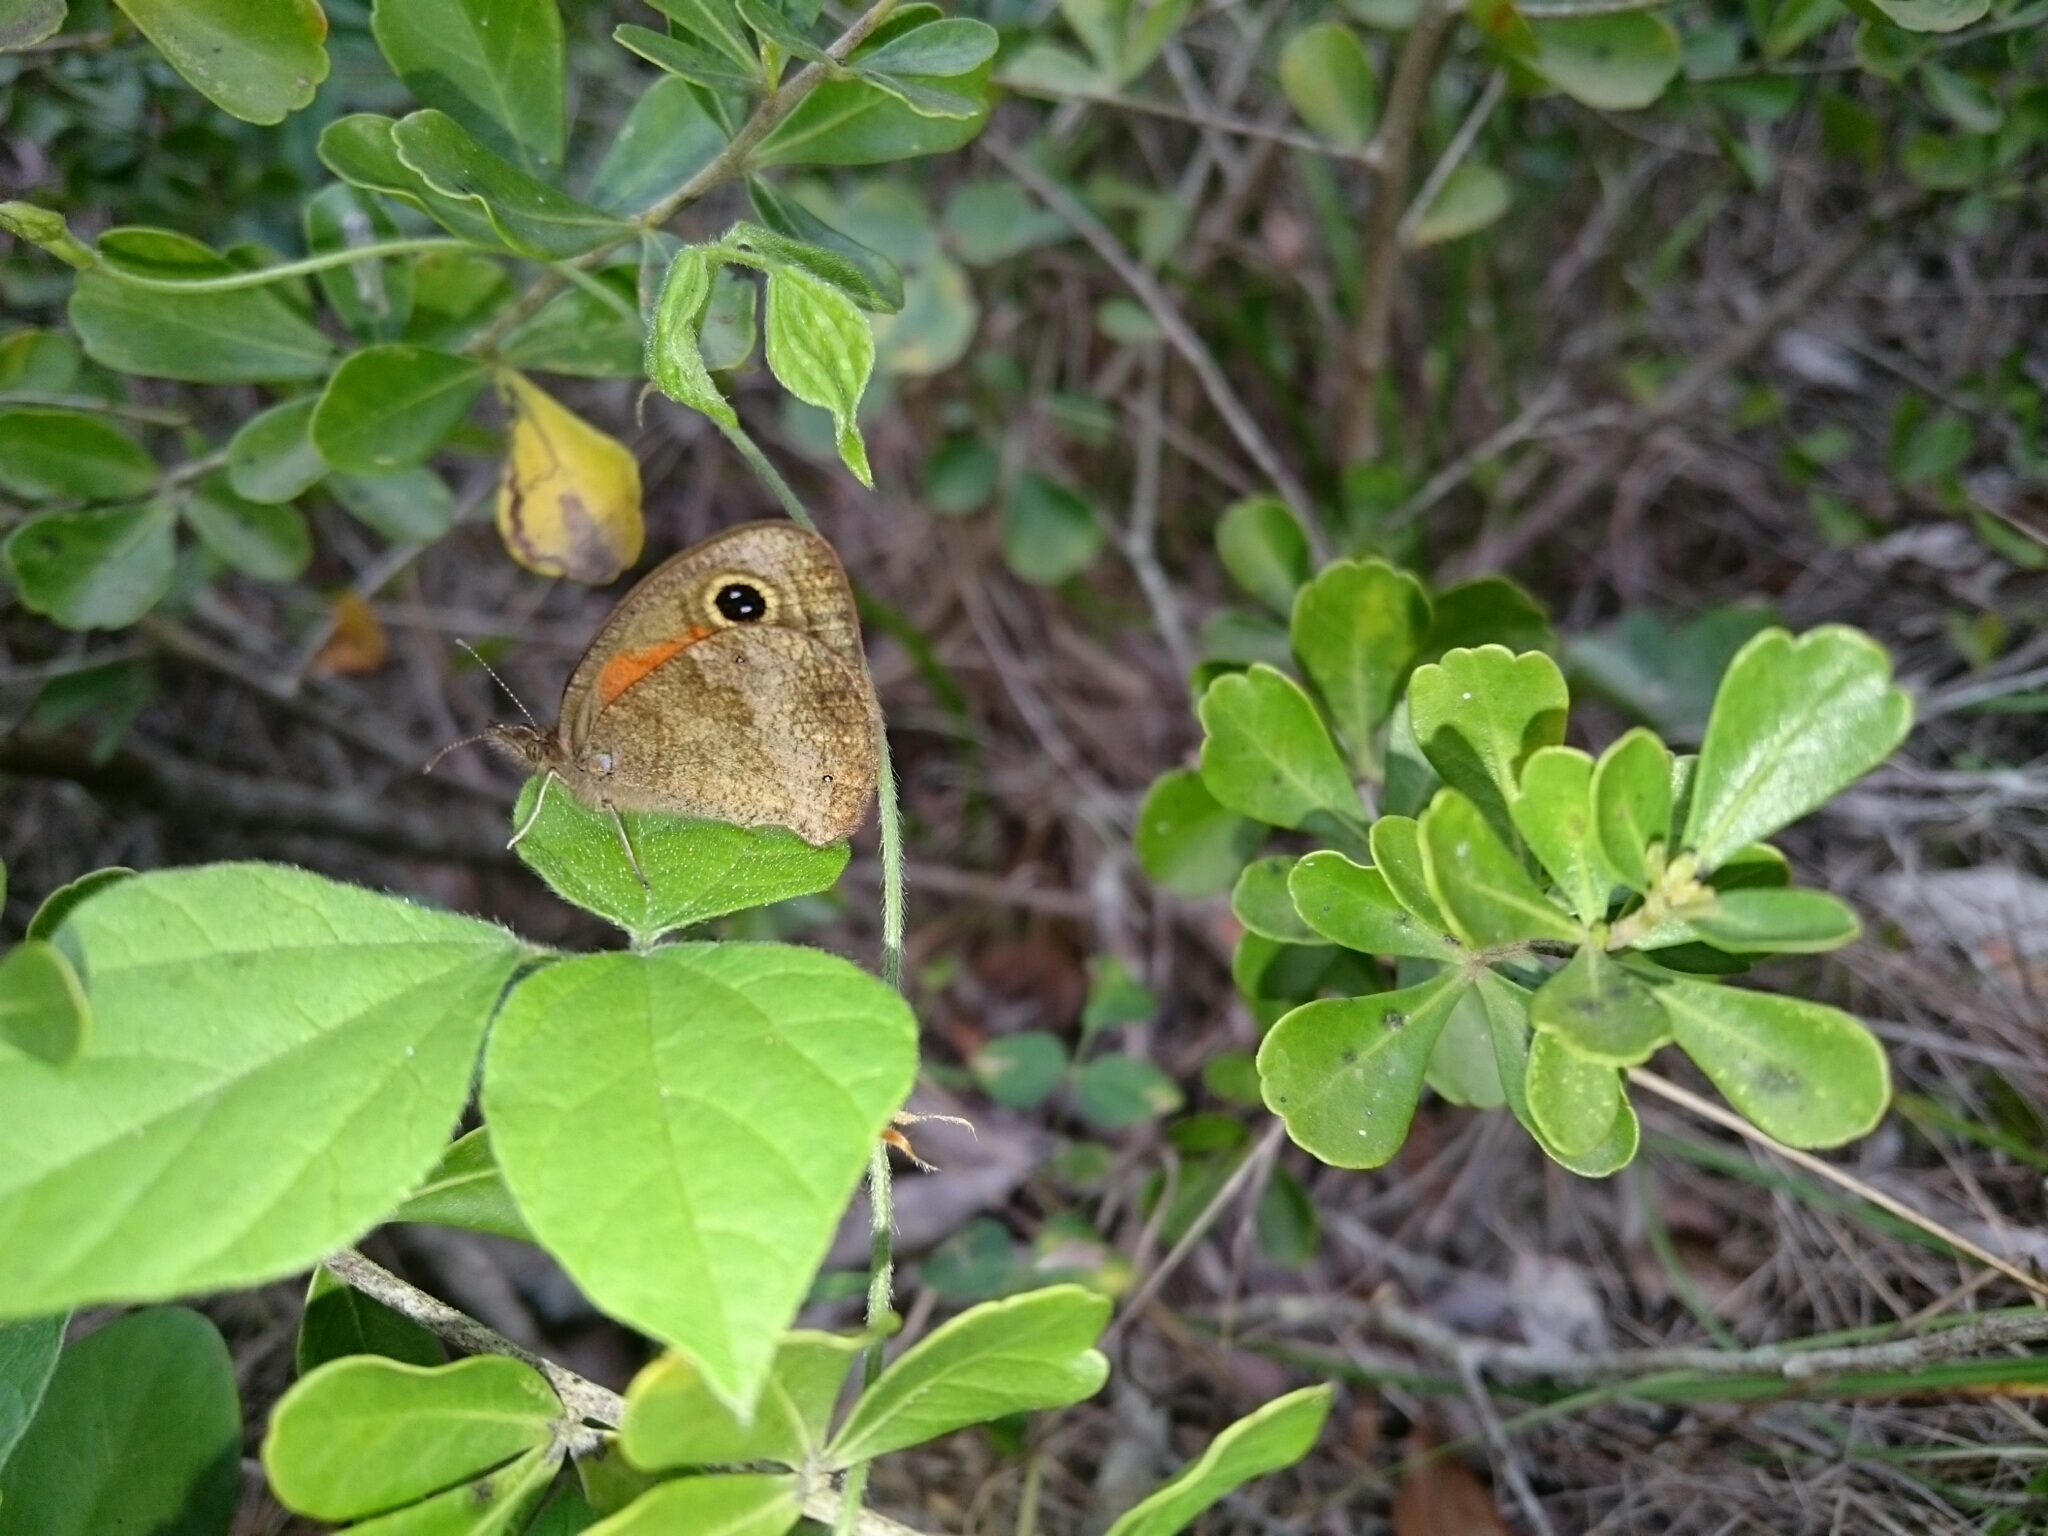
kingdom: Animalia
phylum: Arthropoda
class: Insecta
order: Lepidoptera
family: Nymphalidae
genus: Cassionympha
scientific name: Cassionympha cassius
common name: Rainforest brown
